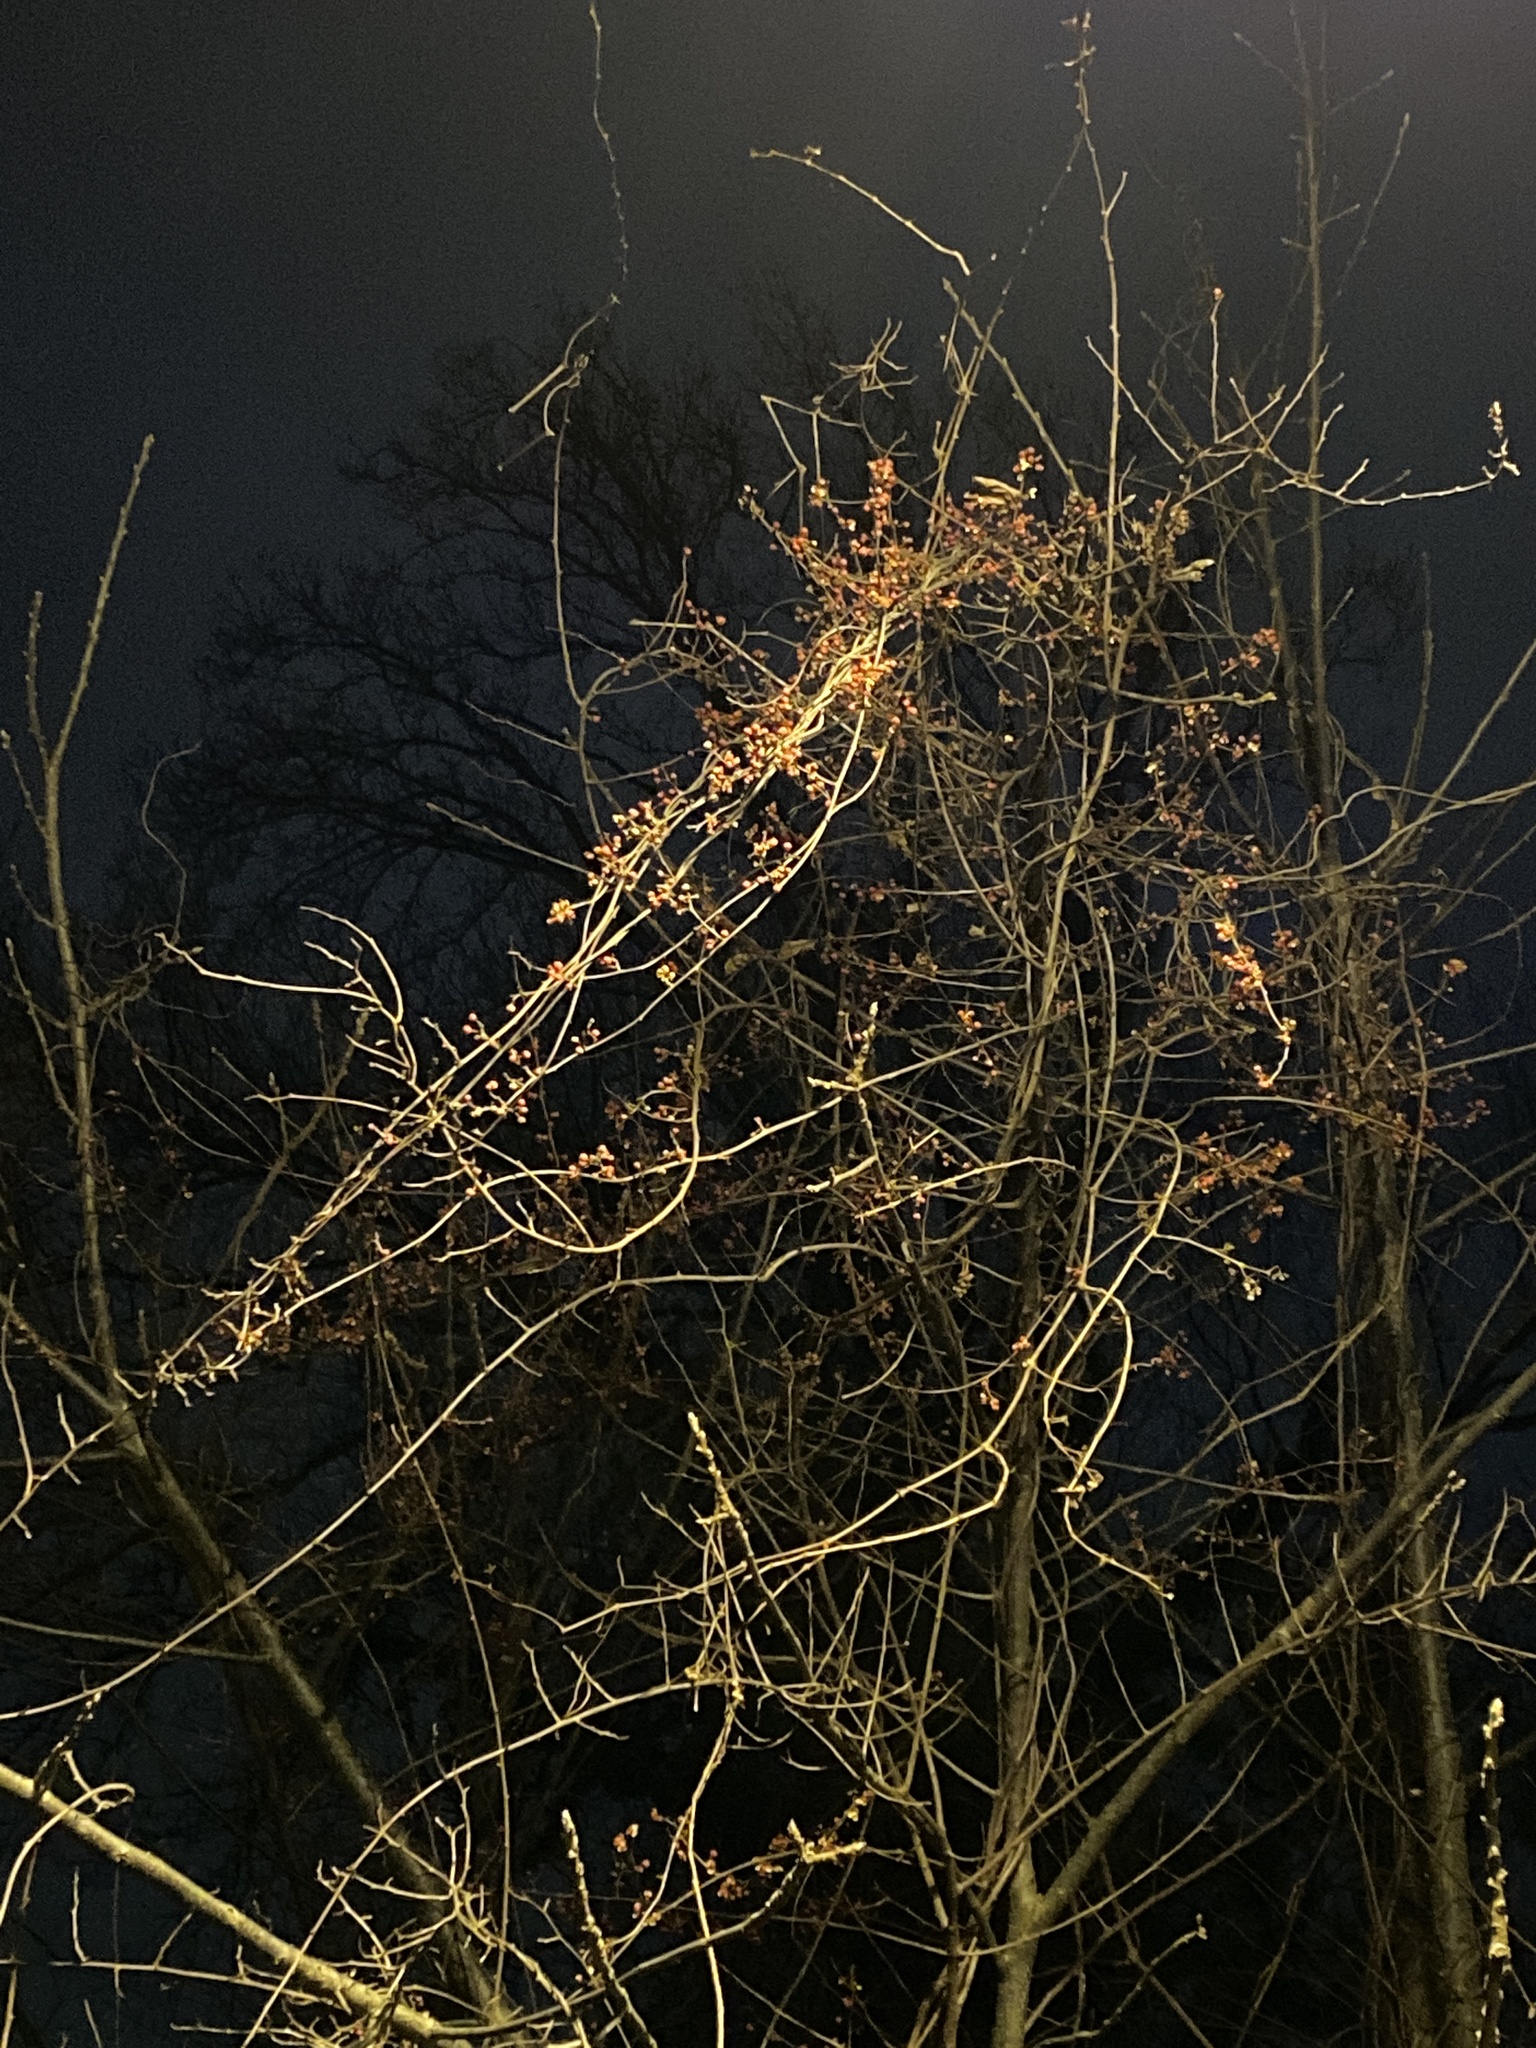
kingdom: Plantae
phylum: Tracheophyta
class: Magnoliopsida
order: Celastrales
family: Celastraceae
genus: Celastrus
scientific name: Celastrus orbiculatus
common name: Oriental bittersweet
